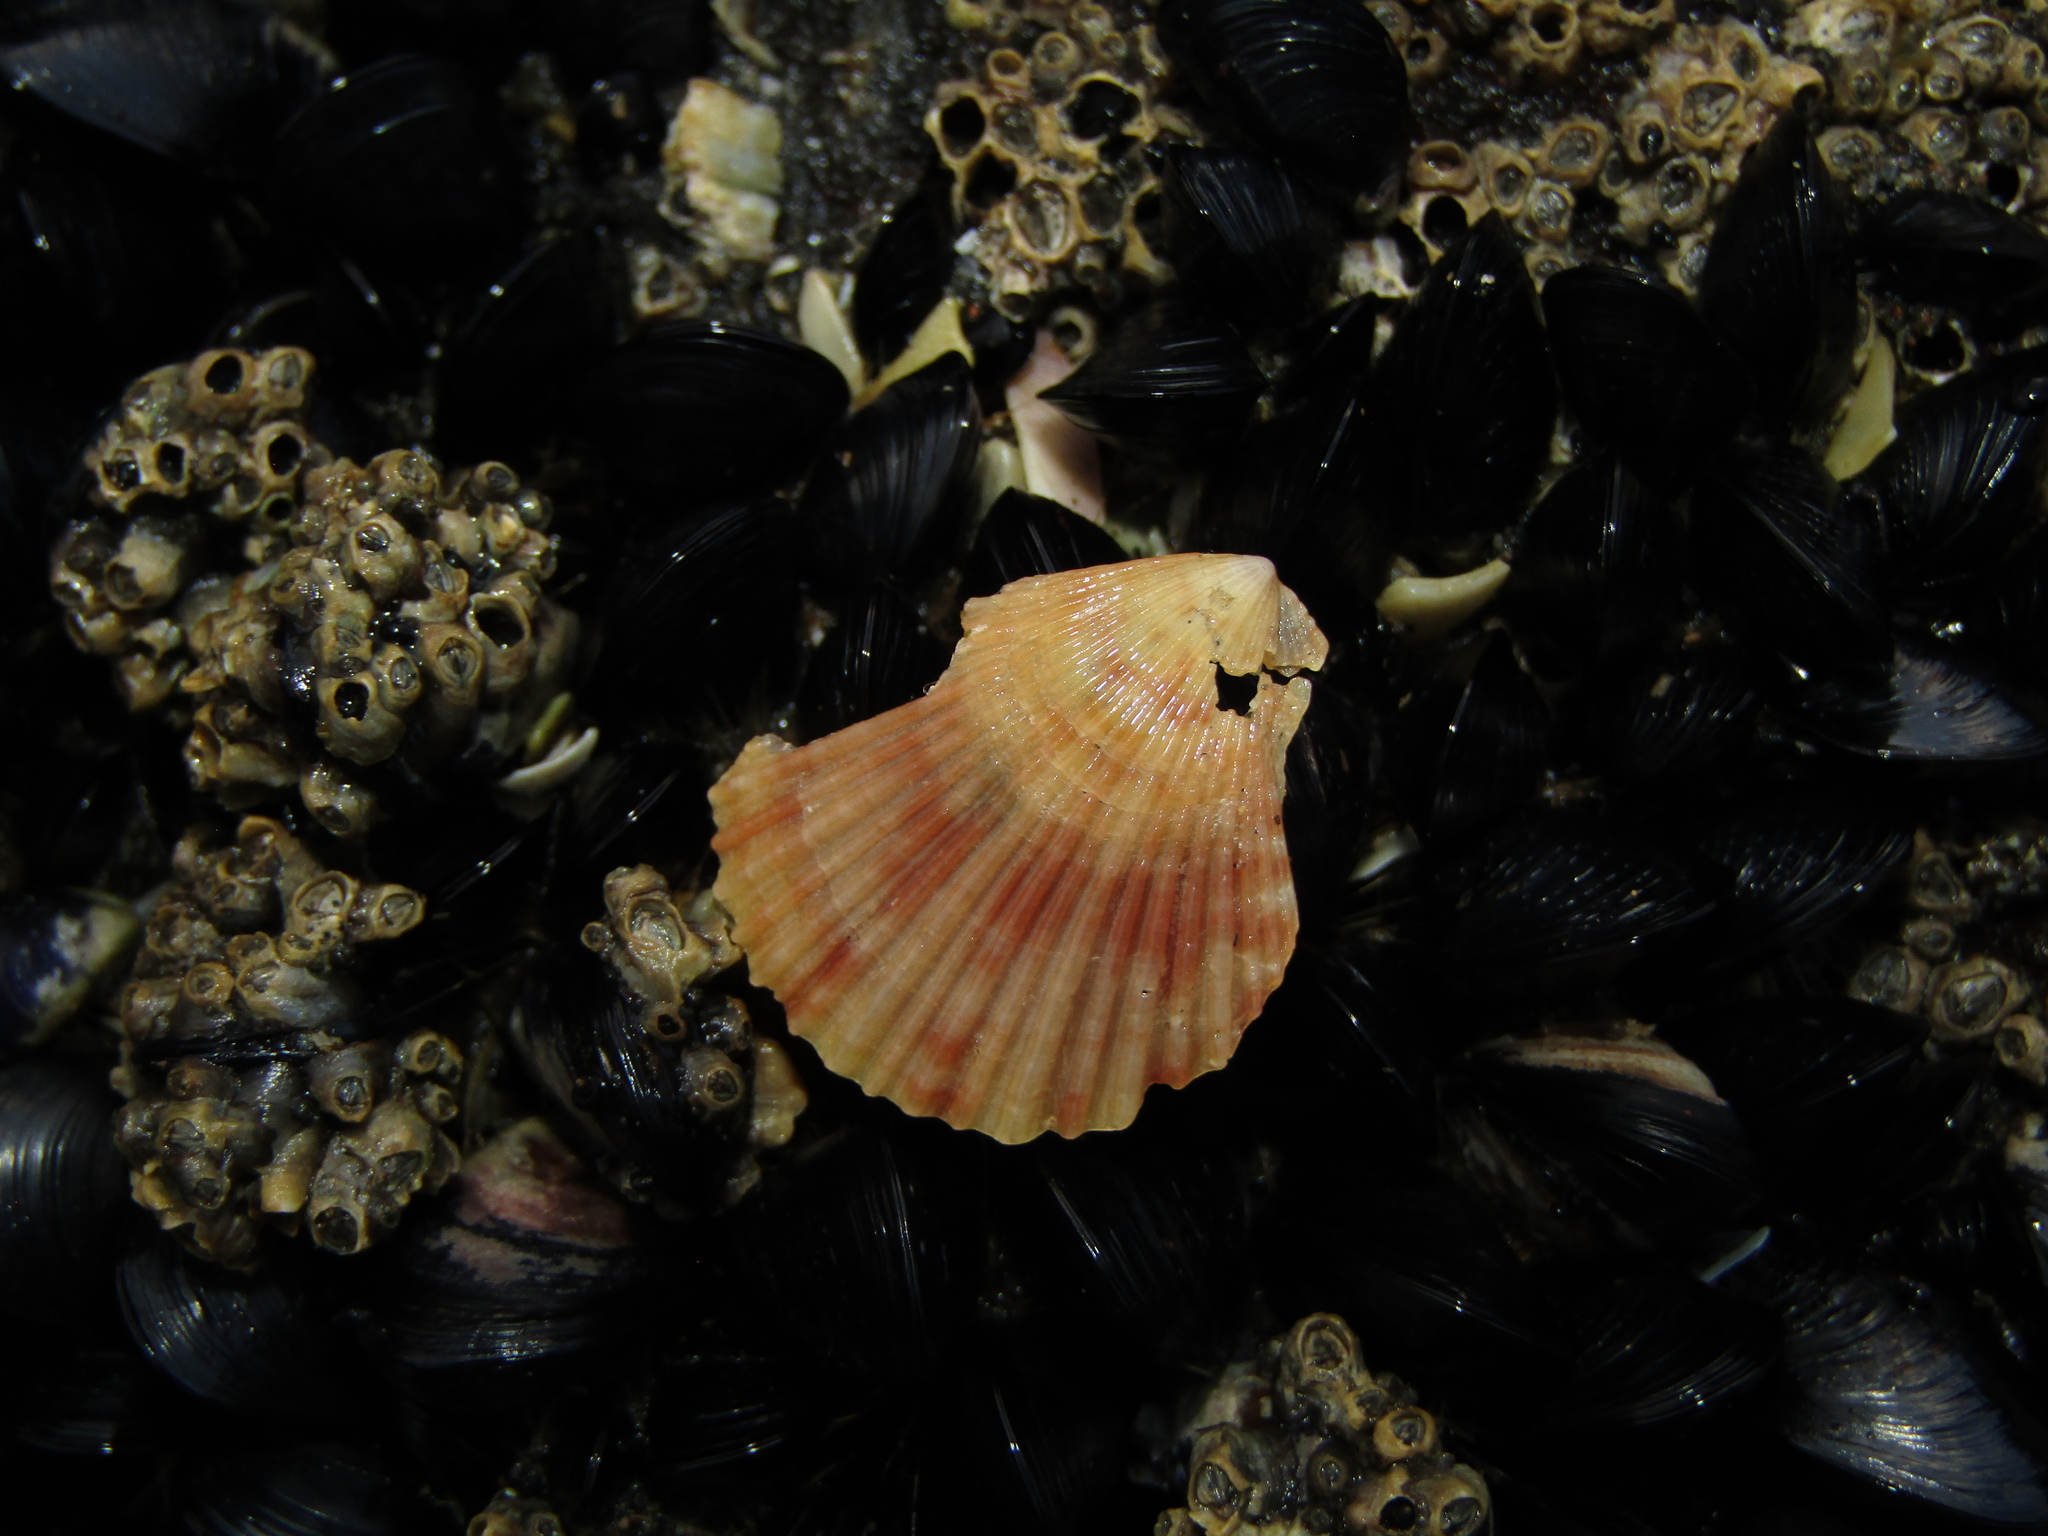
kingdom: Animalia
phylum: Mollusca
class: Bivalvia
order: Pectinida
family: Pectinidae
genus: Talochlamys
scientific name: Talochlamys zelandiae
